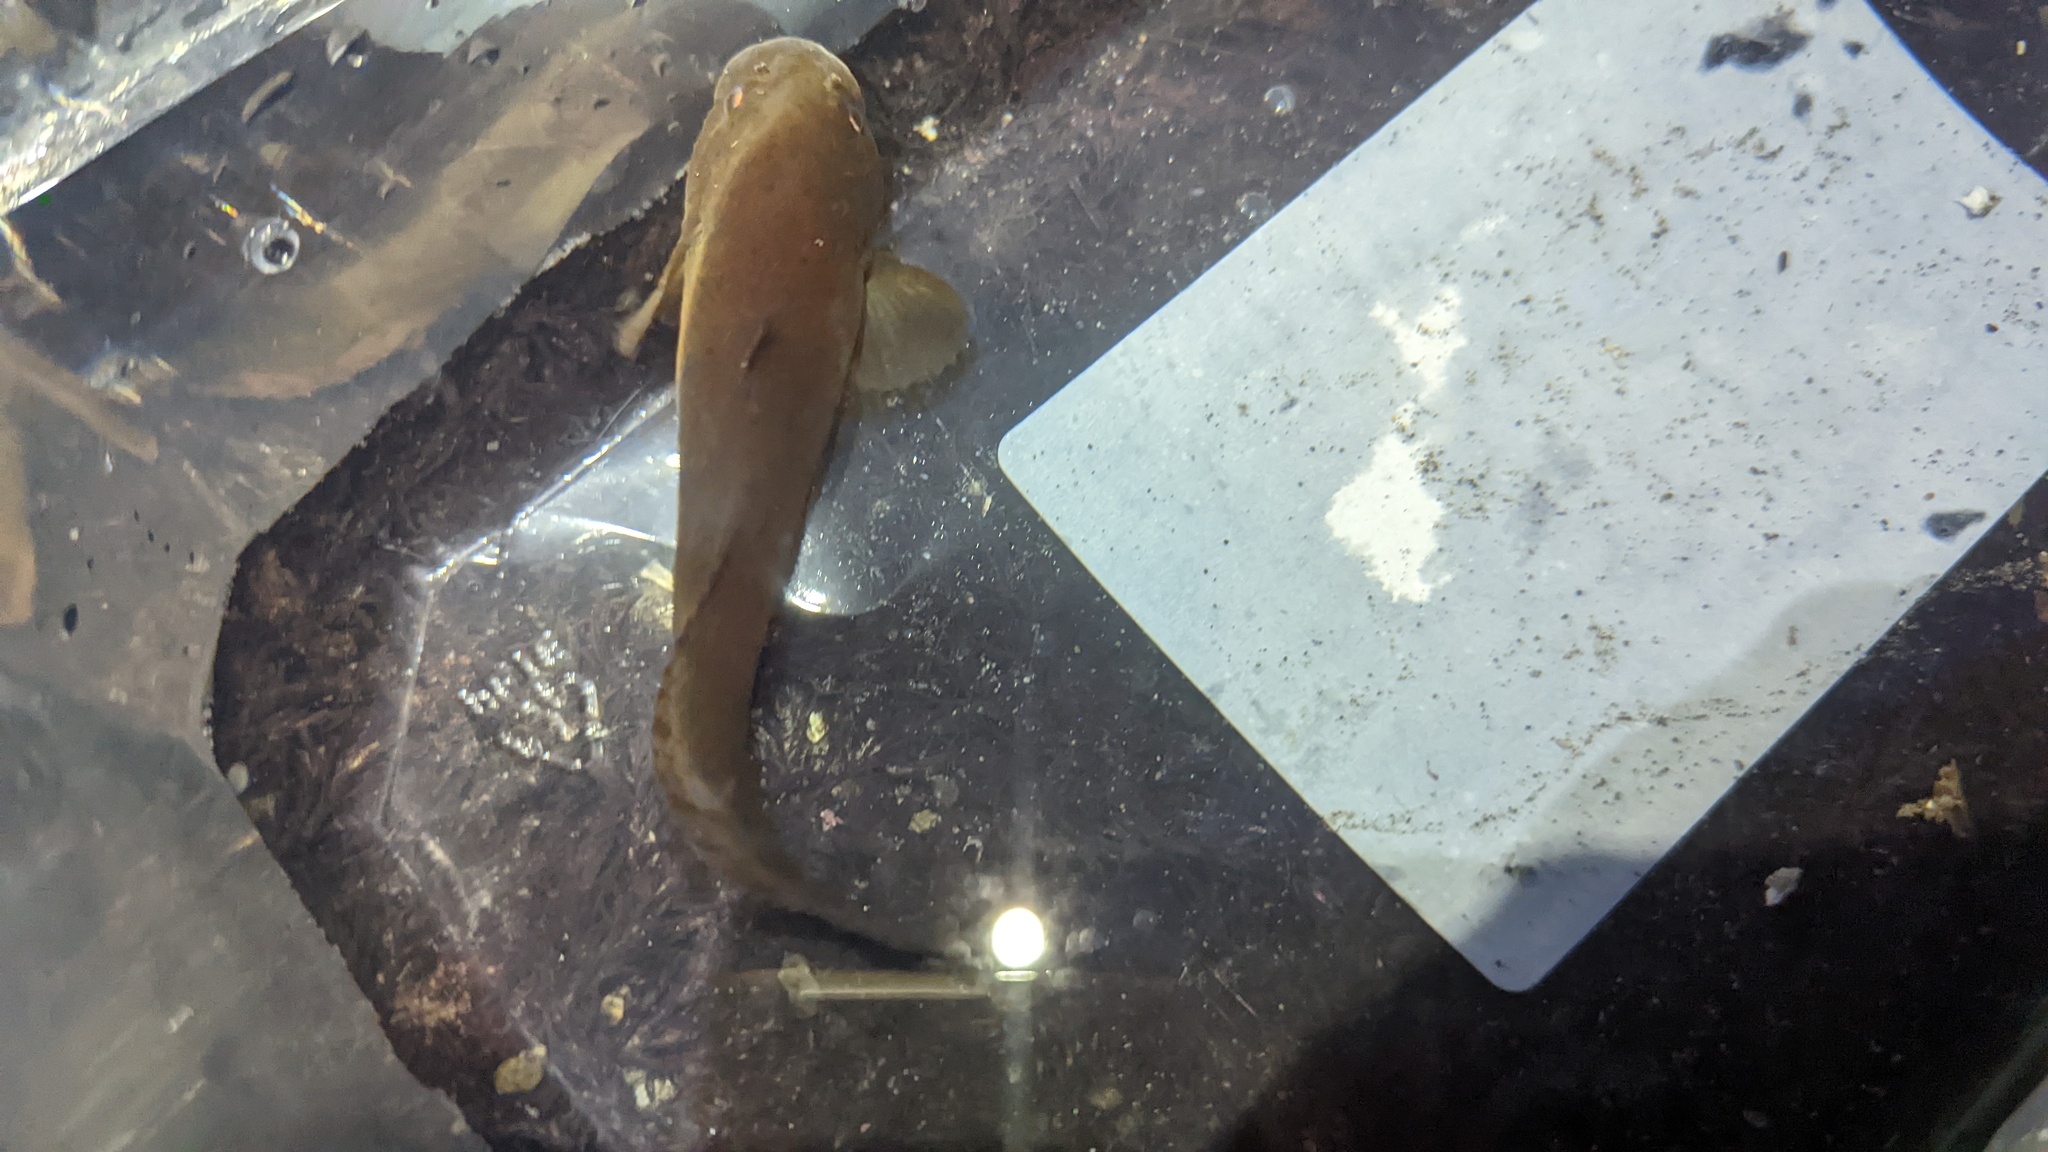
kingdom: Animalia
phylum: Chordata
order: Scorpaeniformes
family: Liparidae
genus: Liparis
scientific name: Liparis florae
